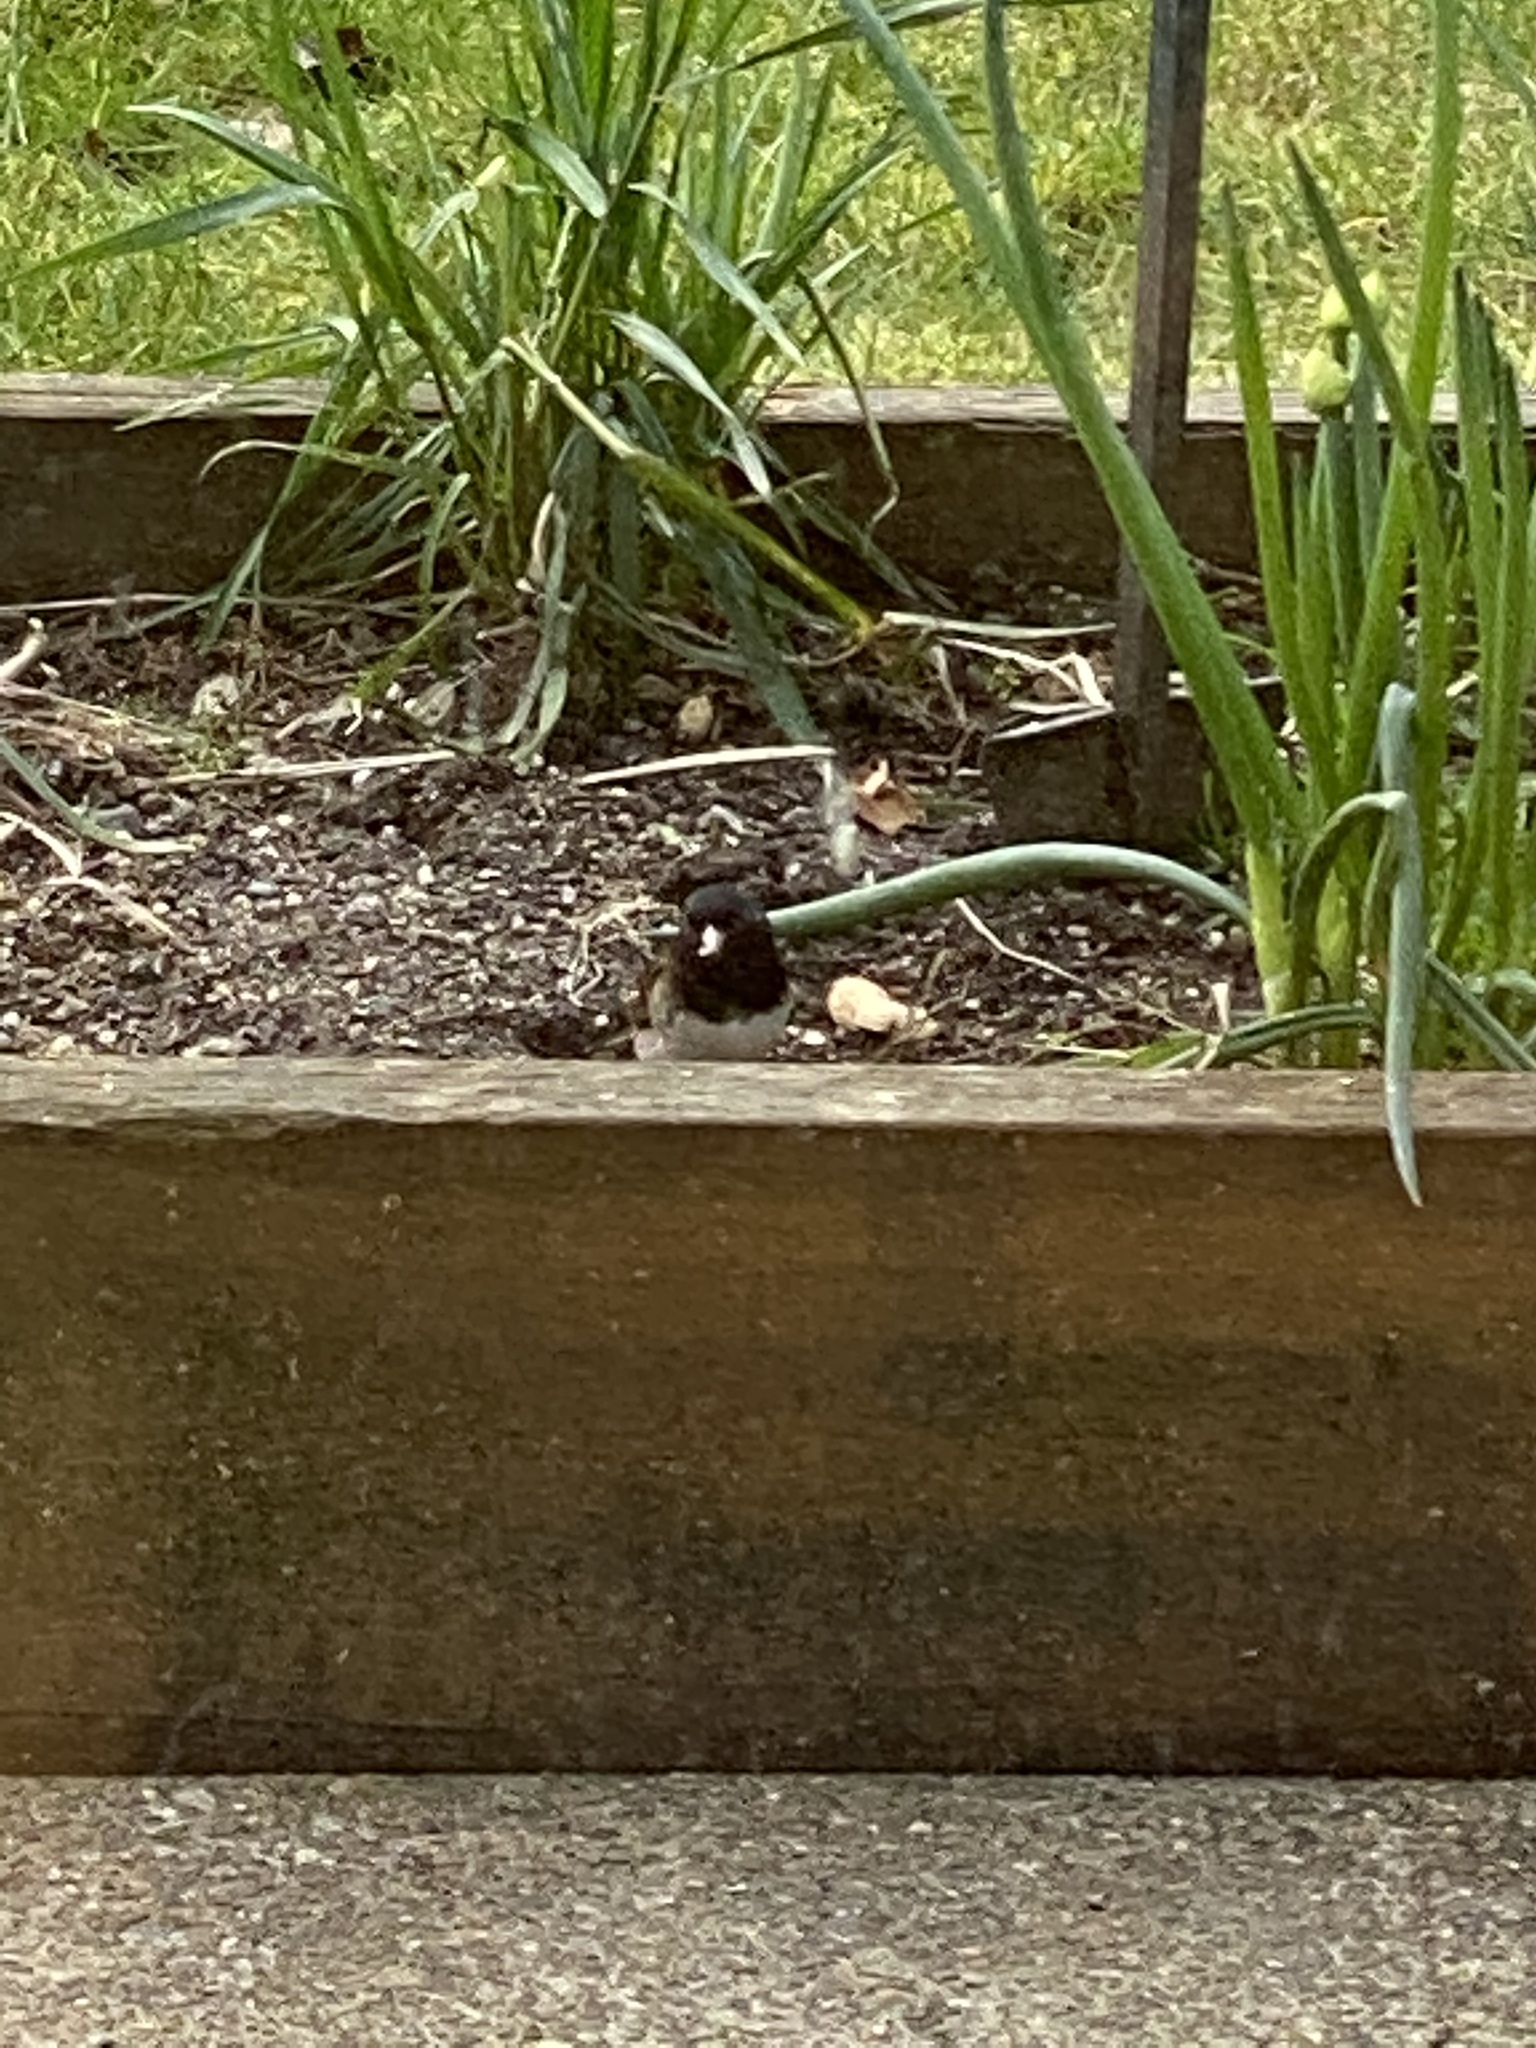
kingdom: Animalia
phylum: Chordata
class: Aves
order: Passeriformes
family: Passerellidae
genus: Junco
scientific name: Junco hyemalis
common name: Dark-eyed junco
